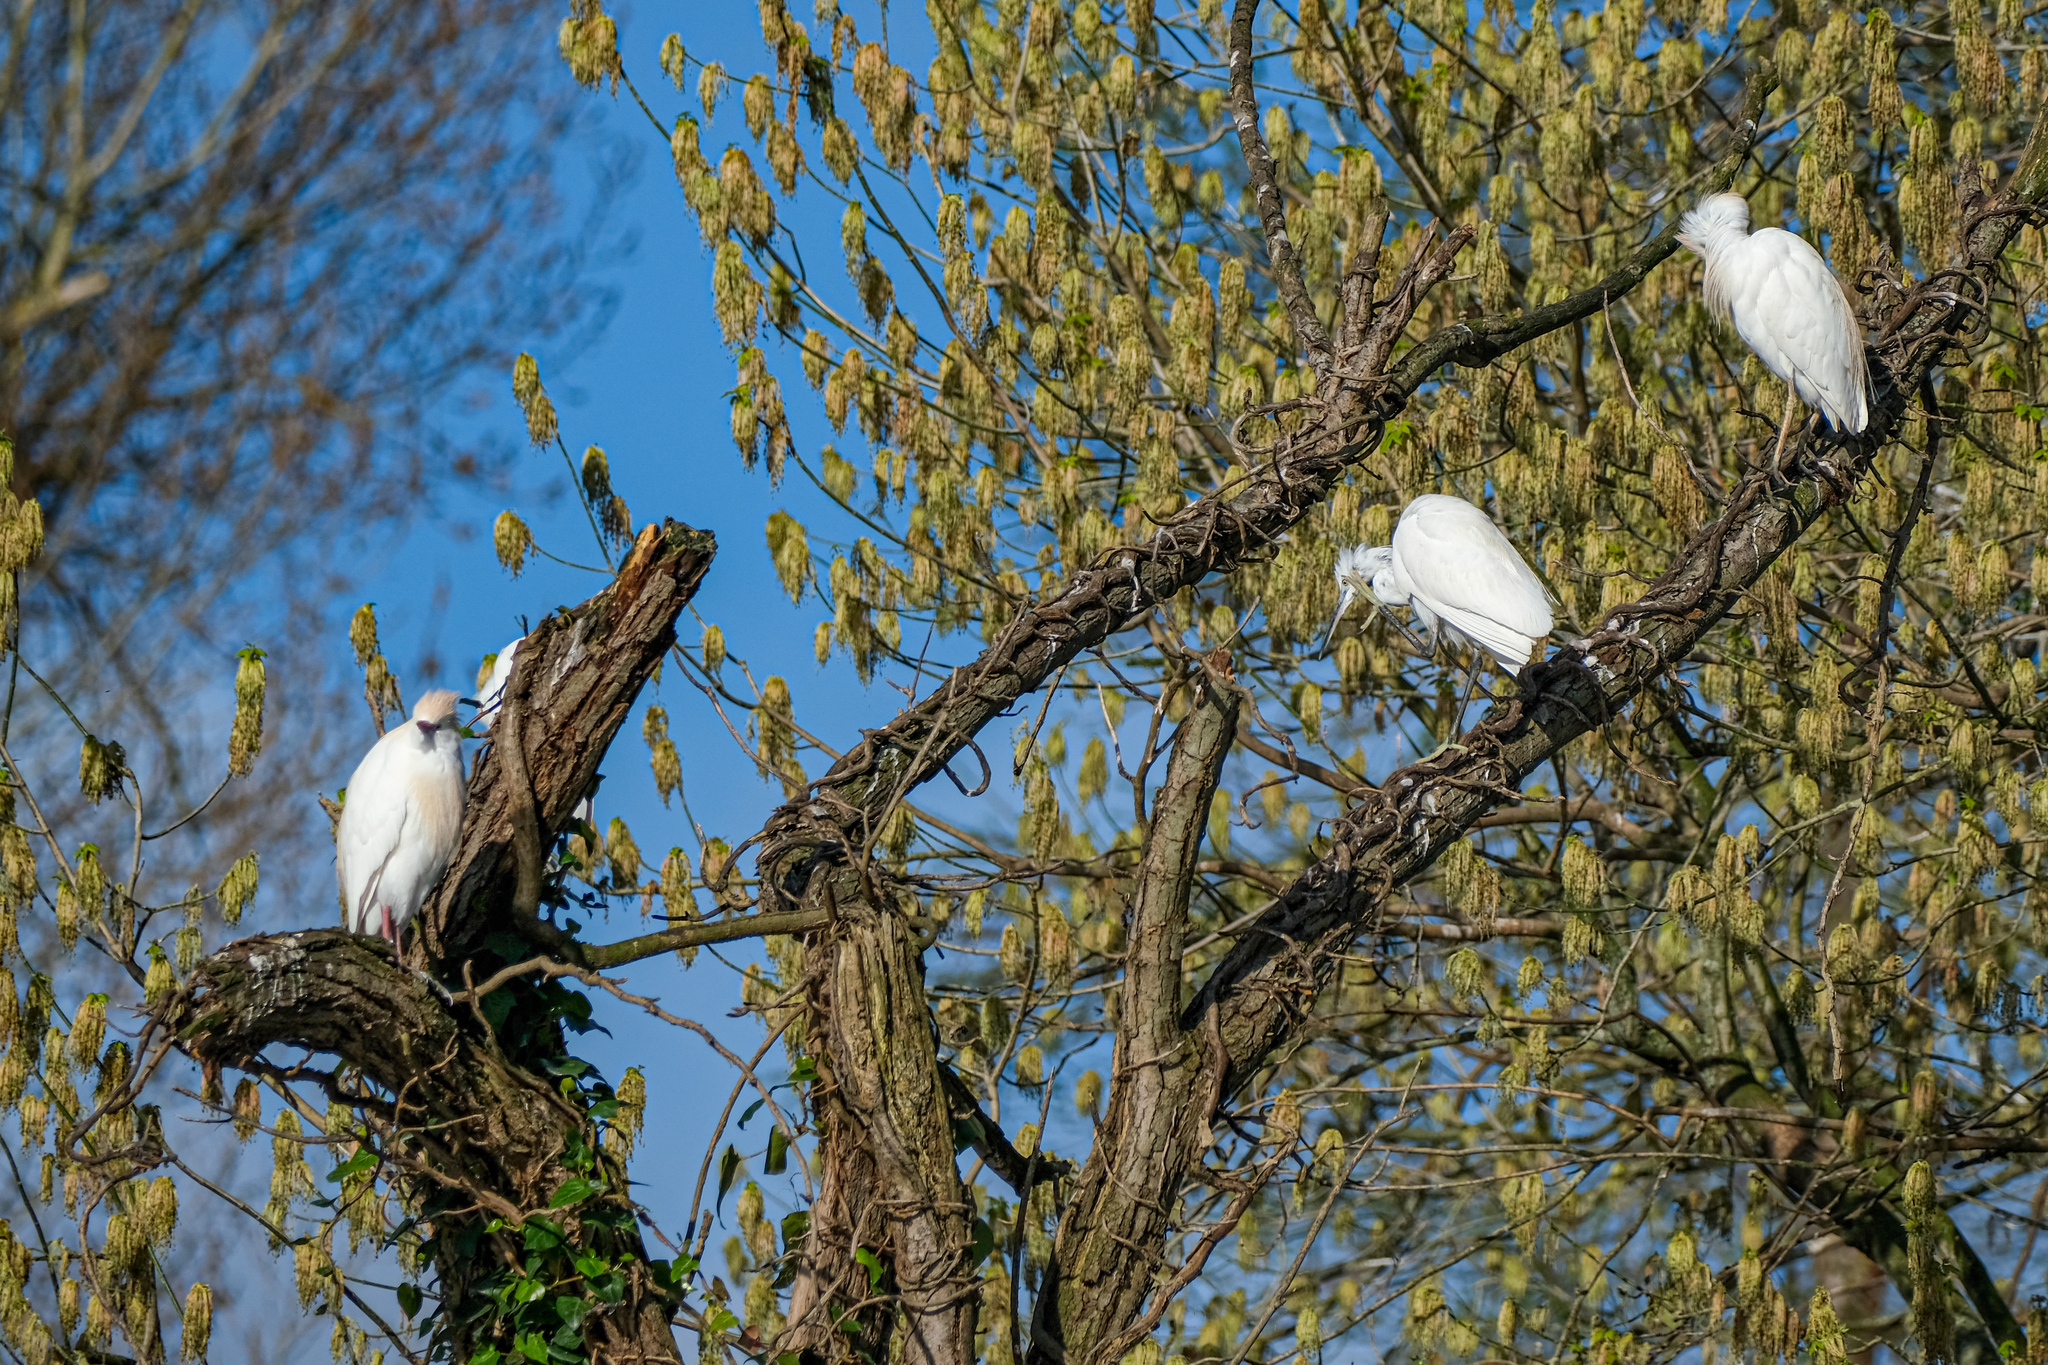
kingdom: Animalia
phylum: Chordata
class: Aves
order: Pelecaniformes
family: Ardeidae
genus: Bubulcus
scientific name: Bubulcus ibis
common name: Cattle egret
